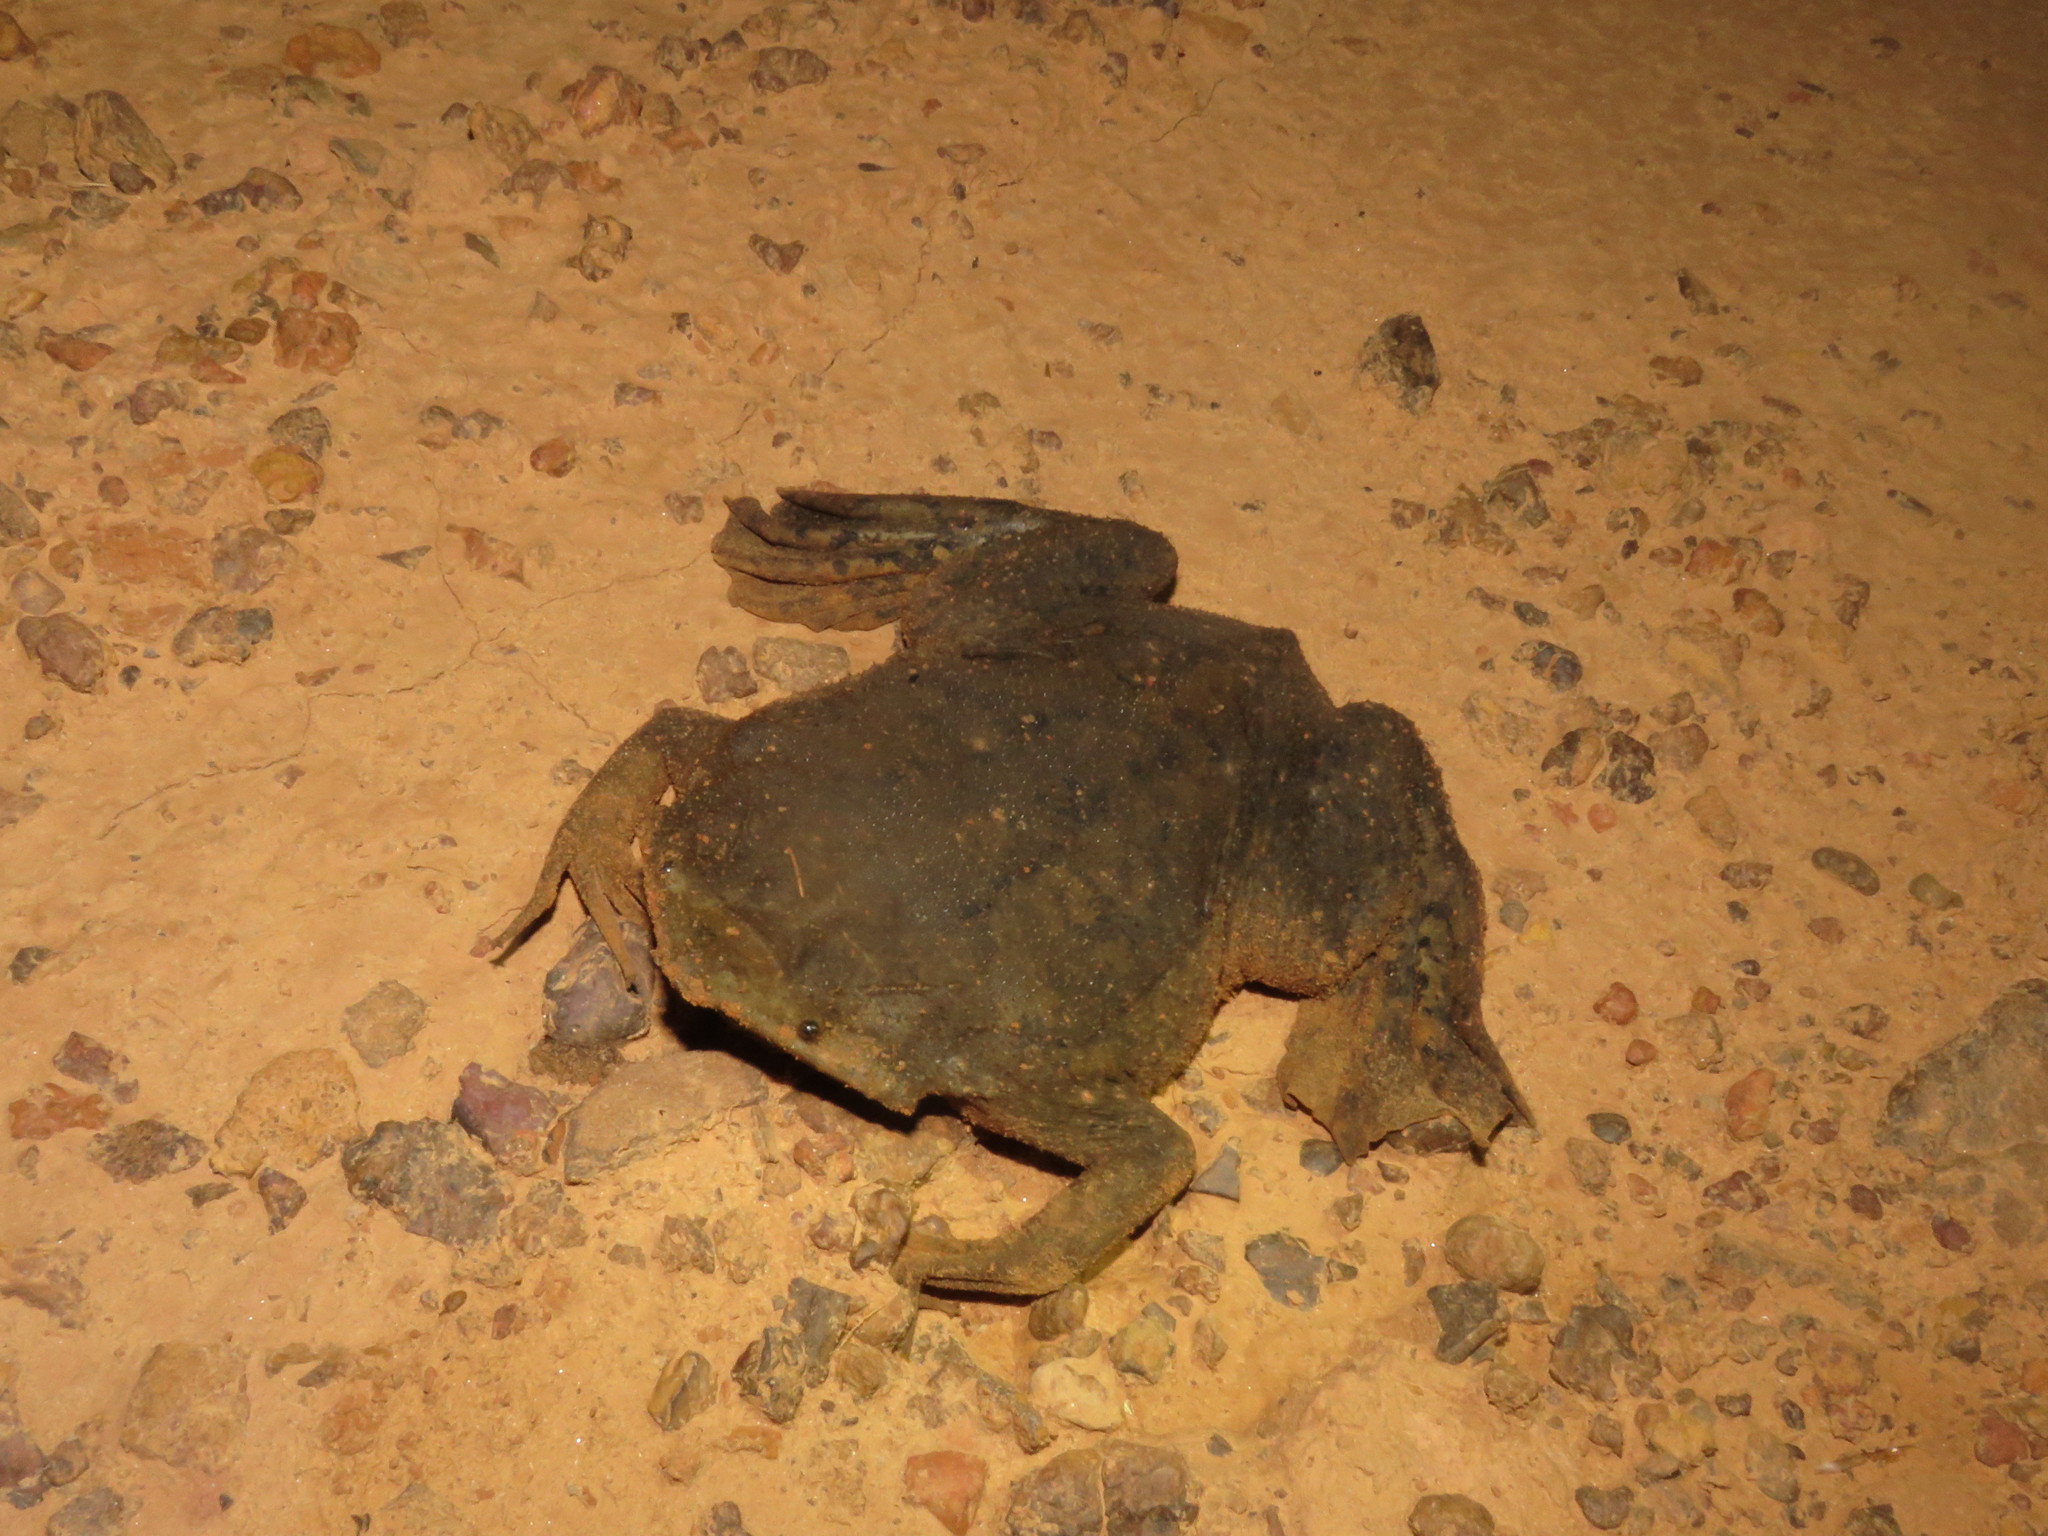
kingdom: Animalia
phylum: Chordata
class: Amphibia
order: Anura
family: Pipidae
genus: Pipa
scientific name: Pipa pipa
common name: Surinam toad
